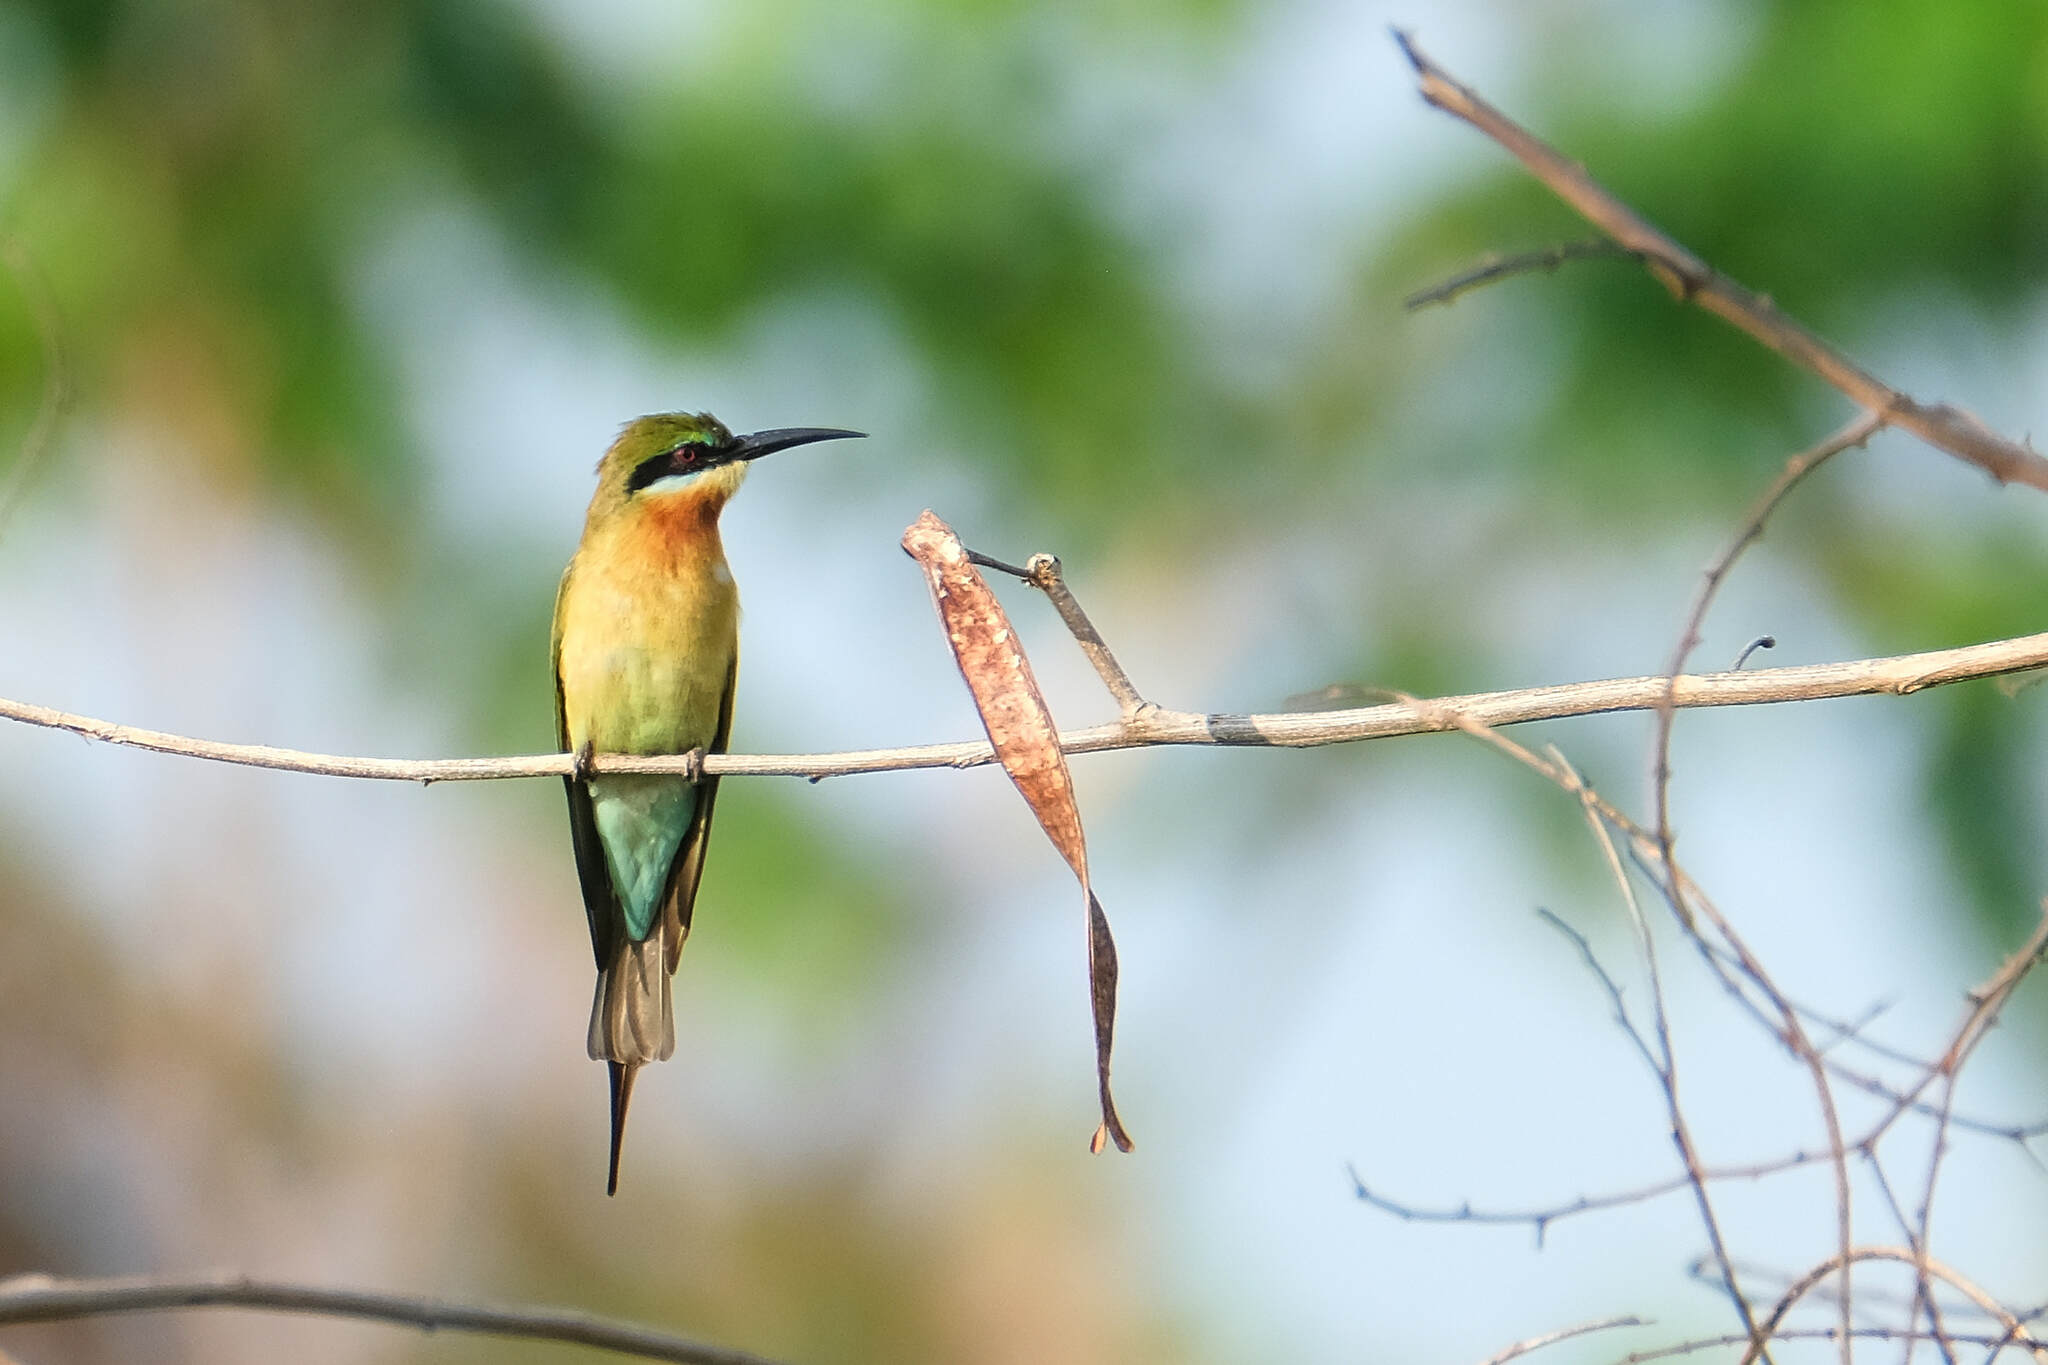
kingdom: Animalia
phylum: Chordata
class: Aves
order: Coraciiformes
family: Meropidae
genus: Merops
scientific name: Merops philippinus
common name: Blue-tailed bee-eater
